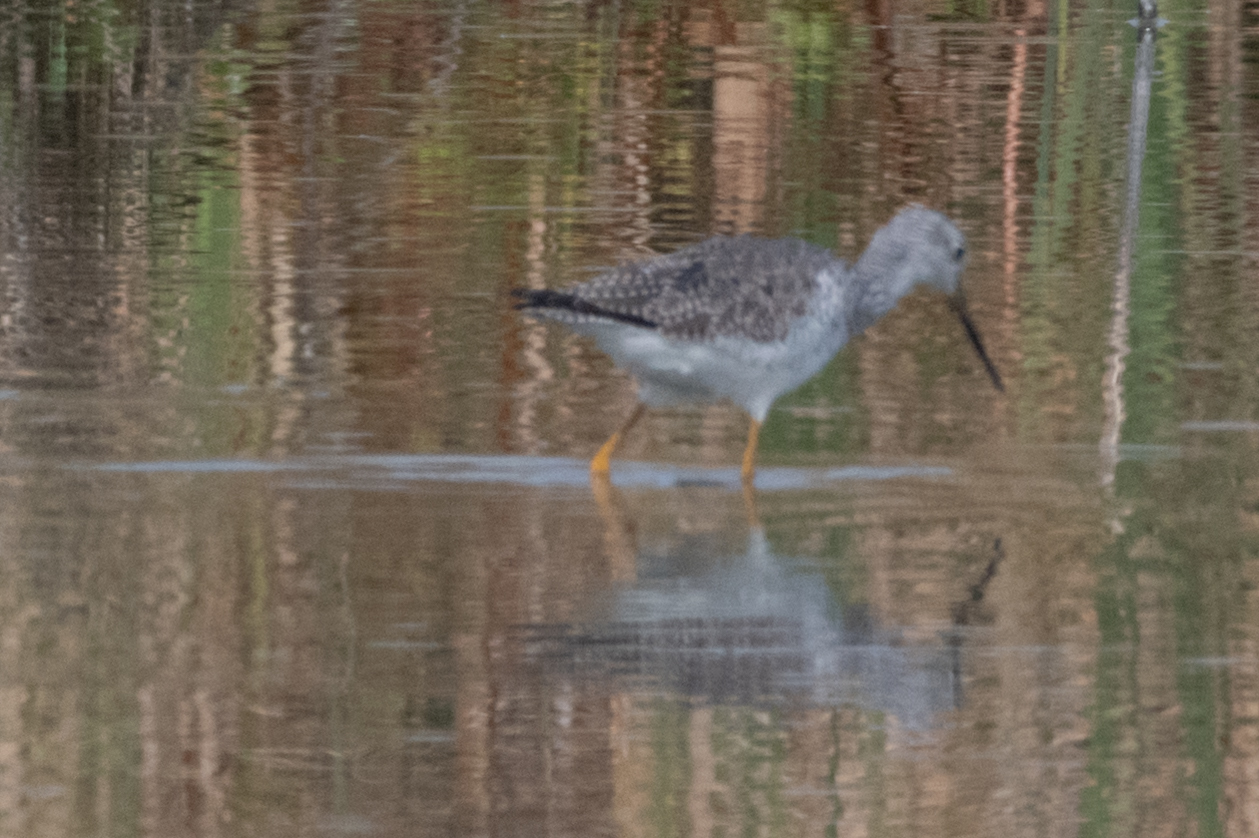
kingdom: Animalia
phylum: Chordata
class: Aves
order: Charadriiformes
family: Scolopacidae
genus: Tringa
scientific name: Tringa melanoleuca
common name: Greater yellowlegs
